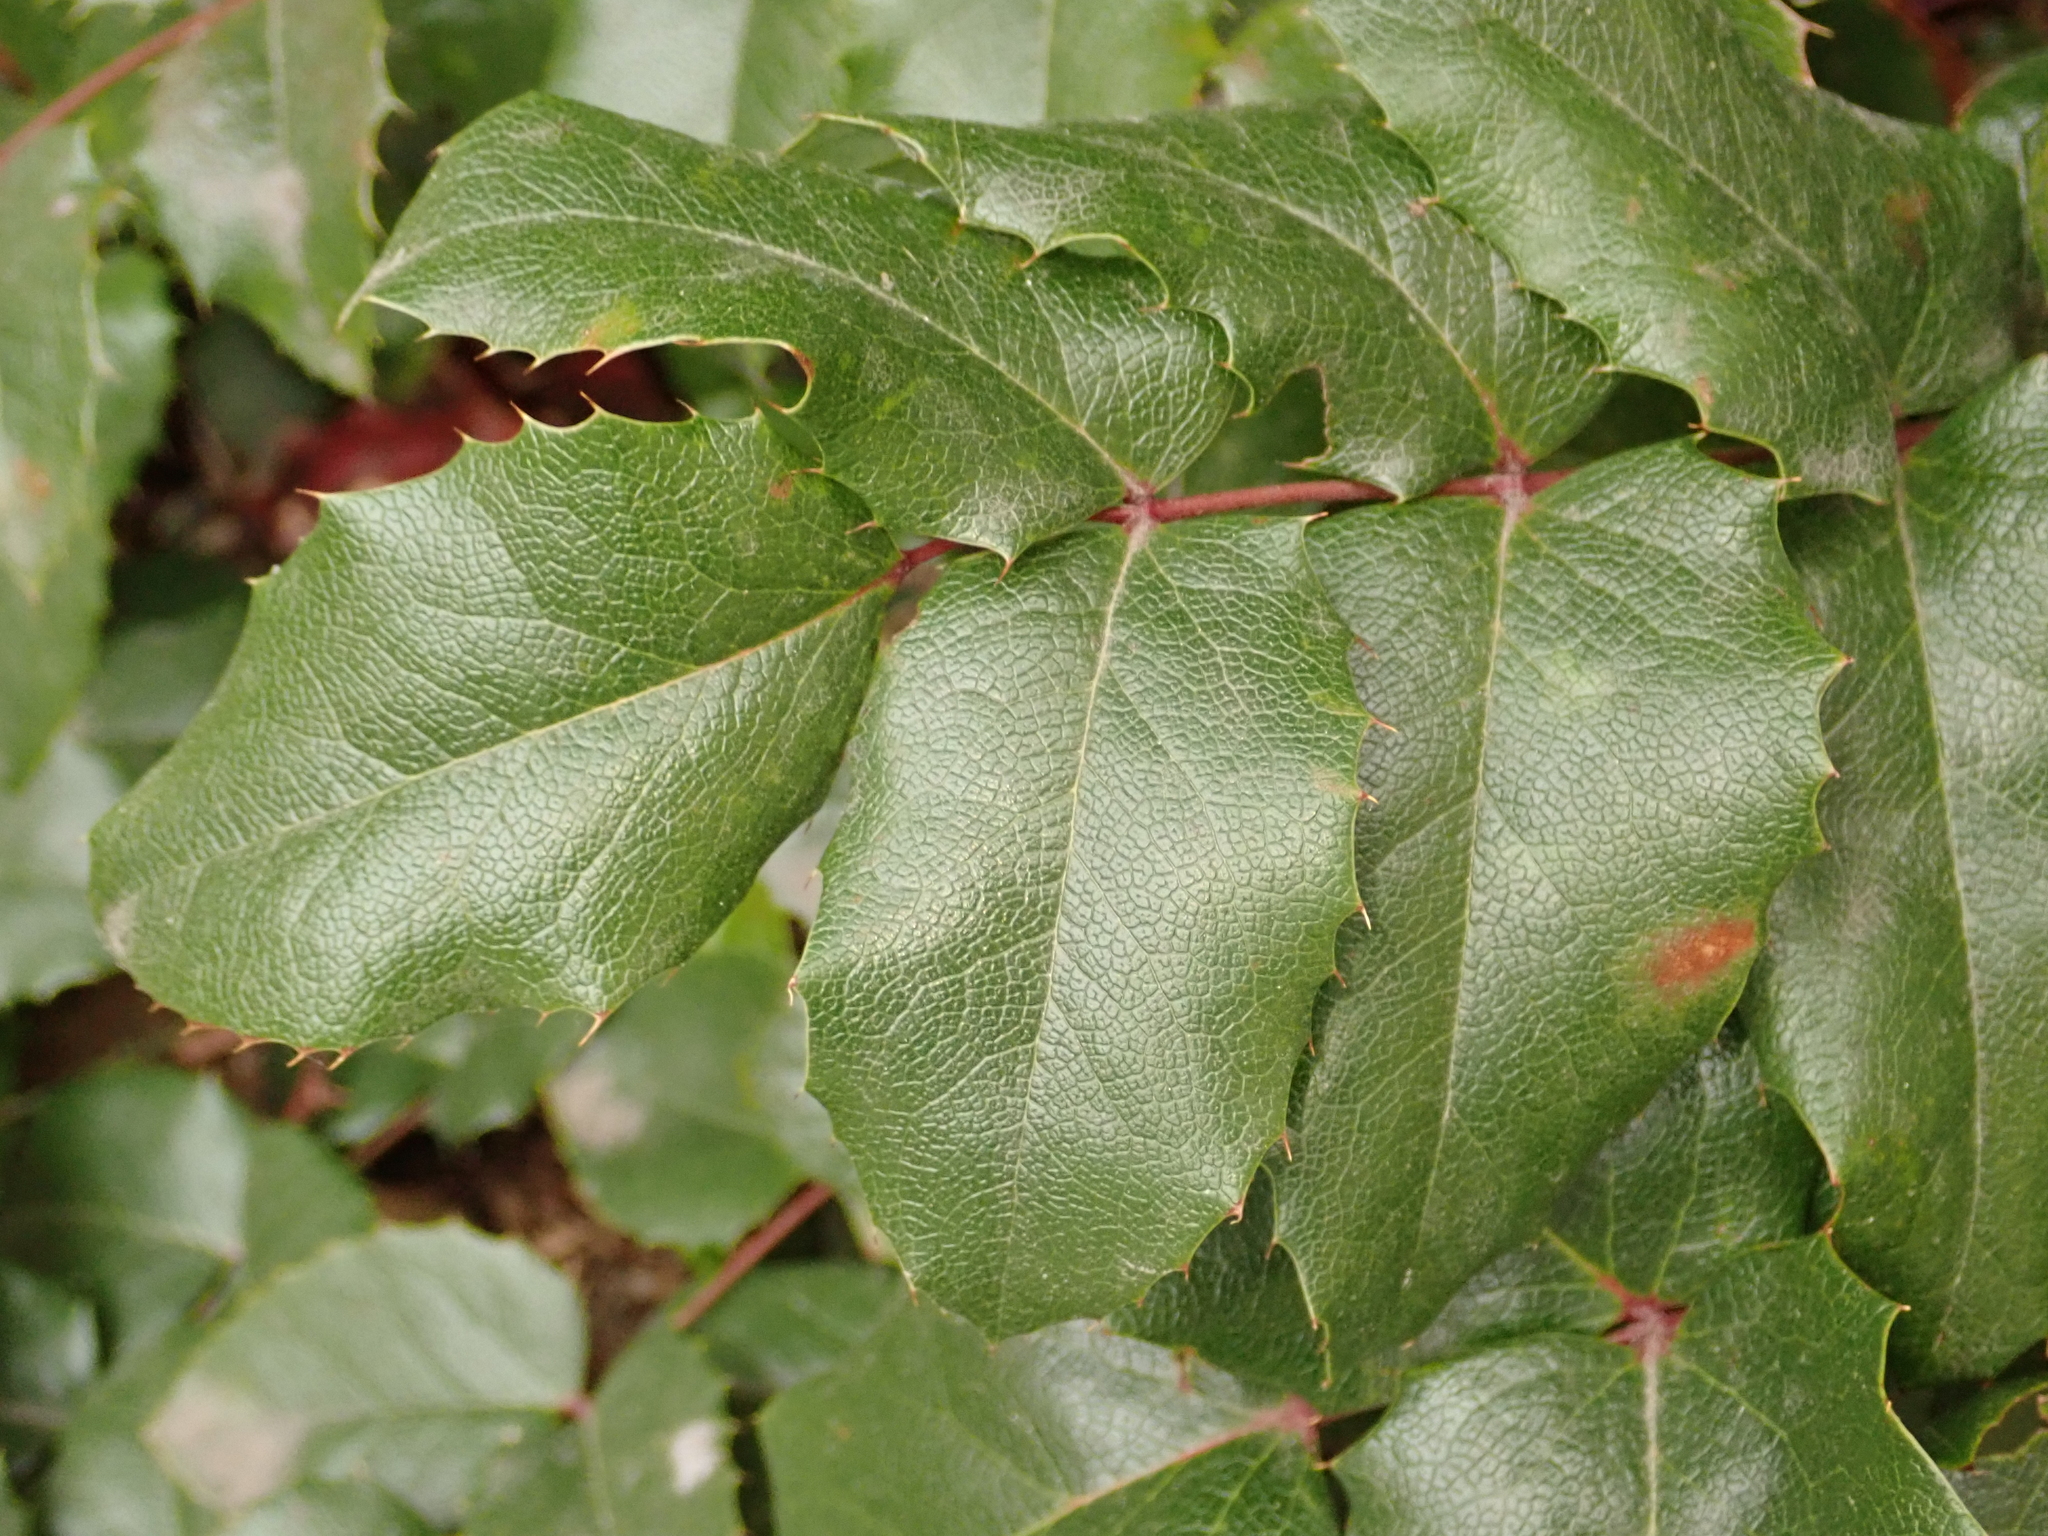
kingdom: Plantae
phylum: Tracheophyta
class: Magnoliopsida
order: Ranunculales
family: Berberidaceae
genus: Mahonia
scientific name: Mahonia aquifolium
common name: Oregon-grape
